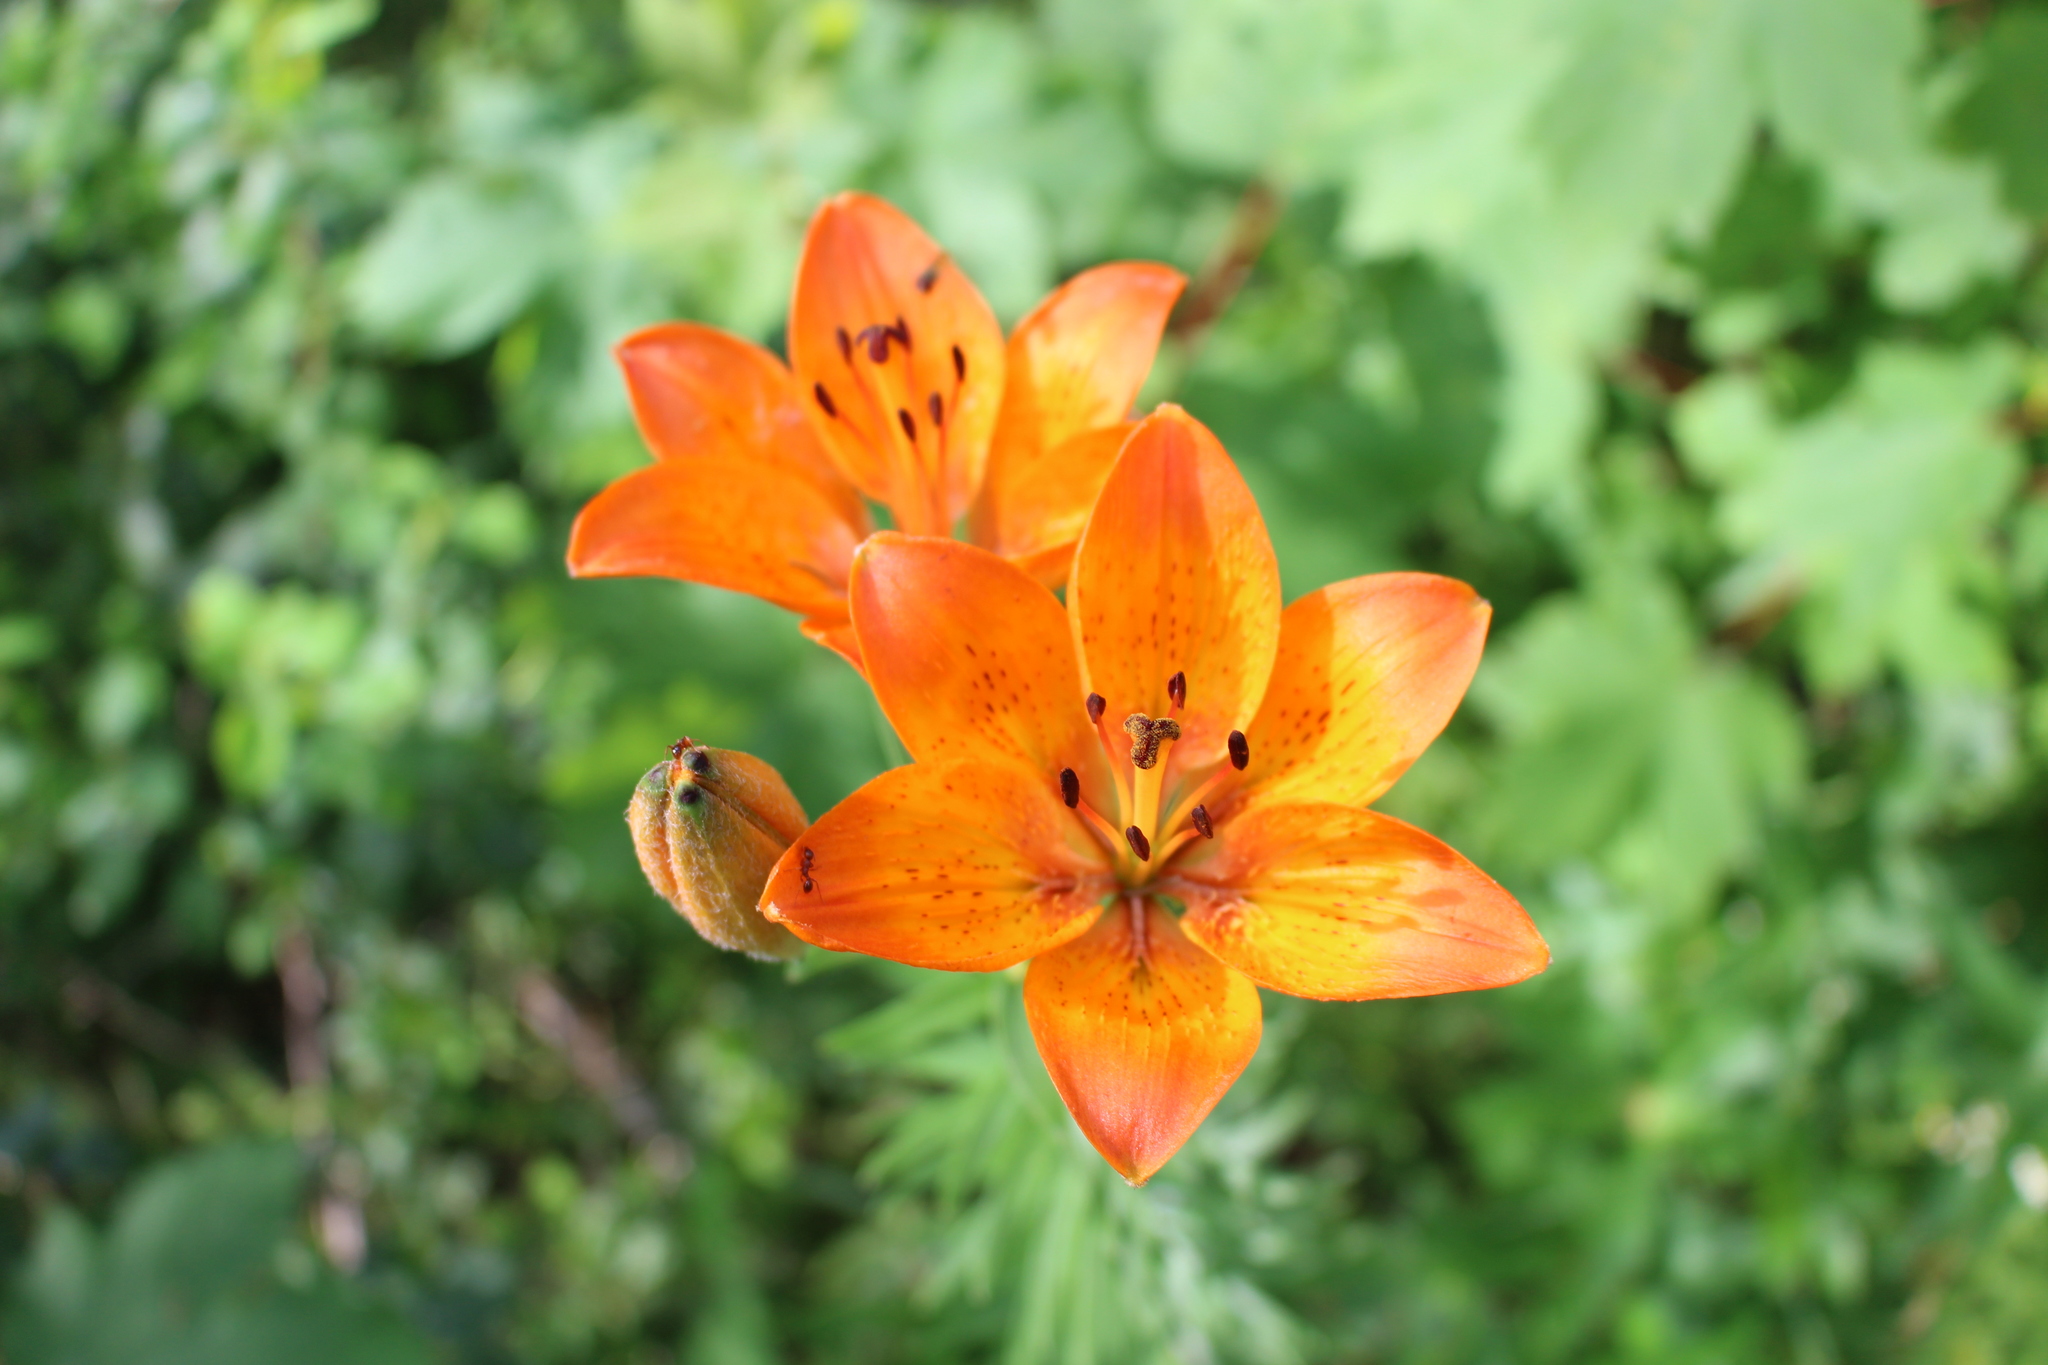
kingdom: Plantae
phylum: Tracheophyta
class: Liliopsida
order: Liliales
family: Liliaceae
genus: Lilium
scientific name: Lilium bulbiferum
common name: Orange lily
